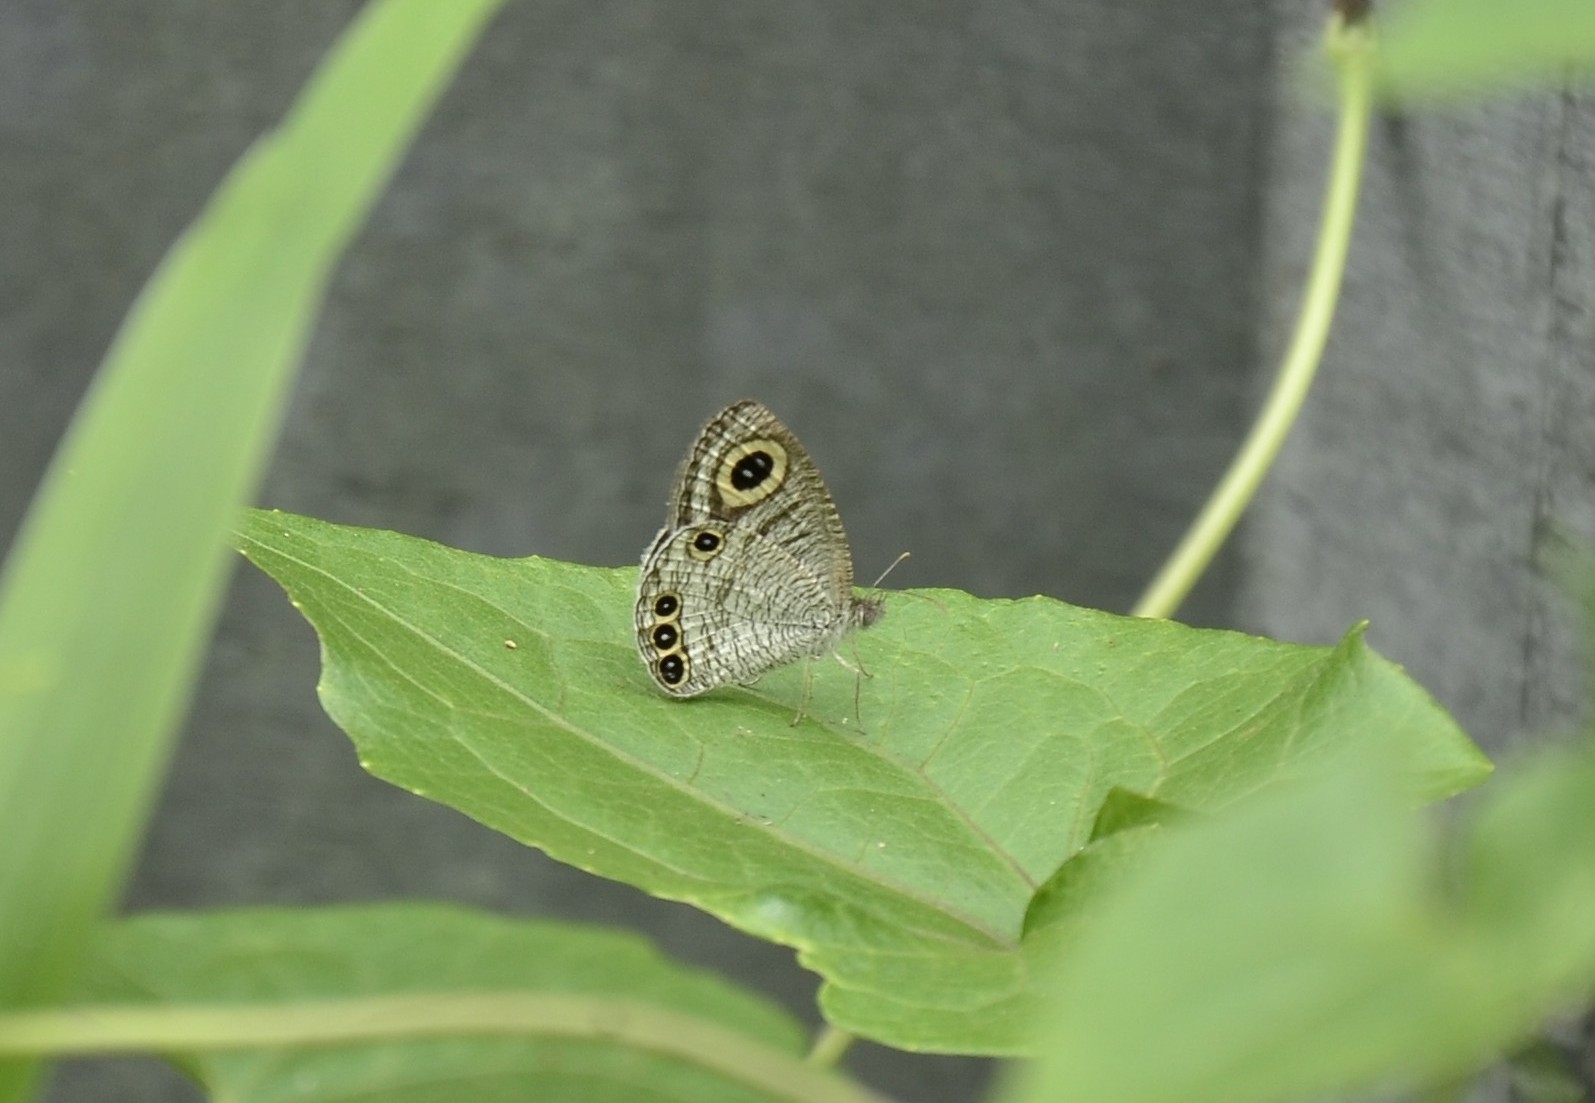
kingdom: Animalia
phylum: Arthropoda
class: Insecta
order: Lepidoptera
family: Nymphalidae
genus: Ypthima
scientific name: Ypthima huebneri
